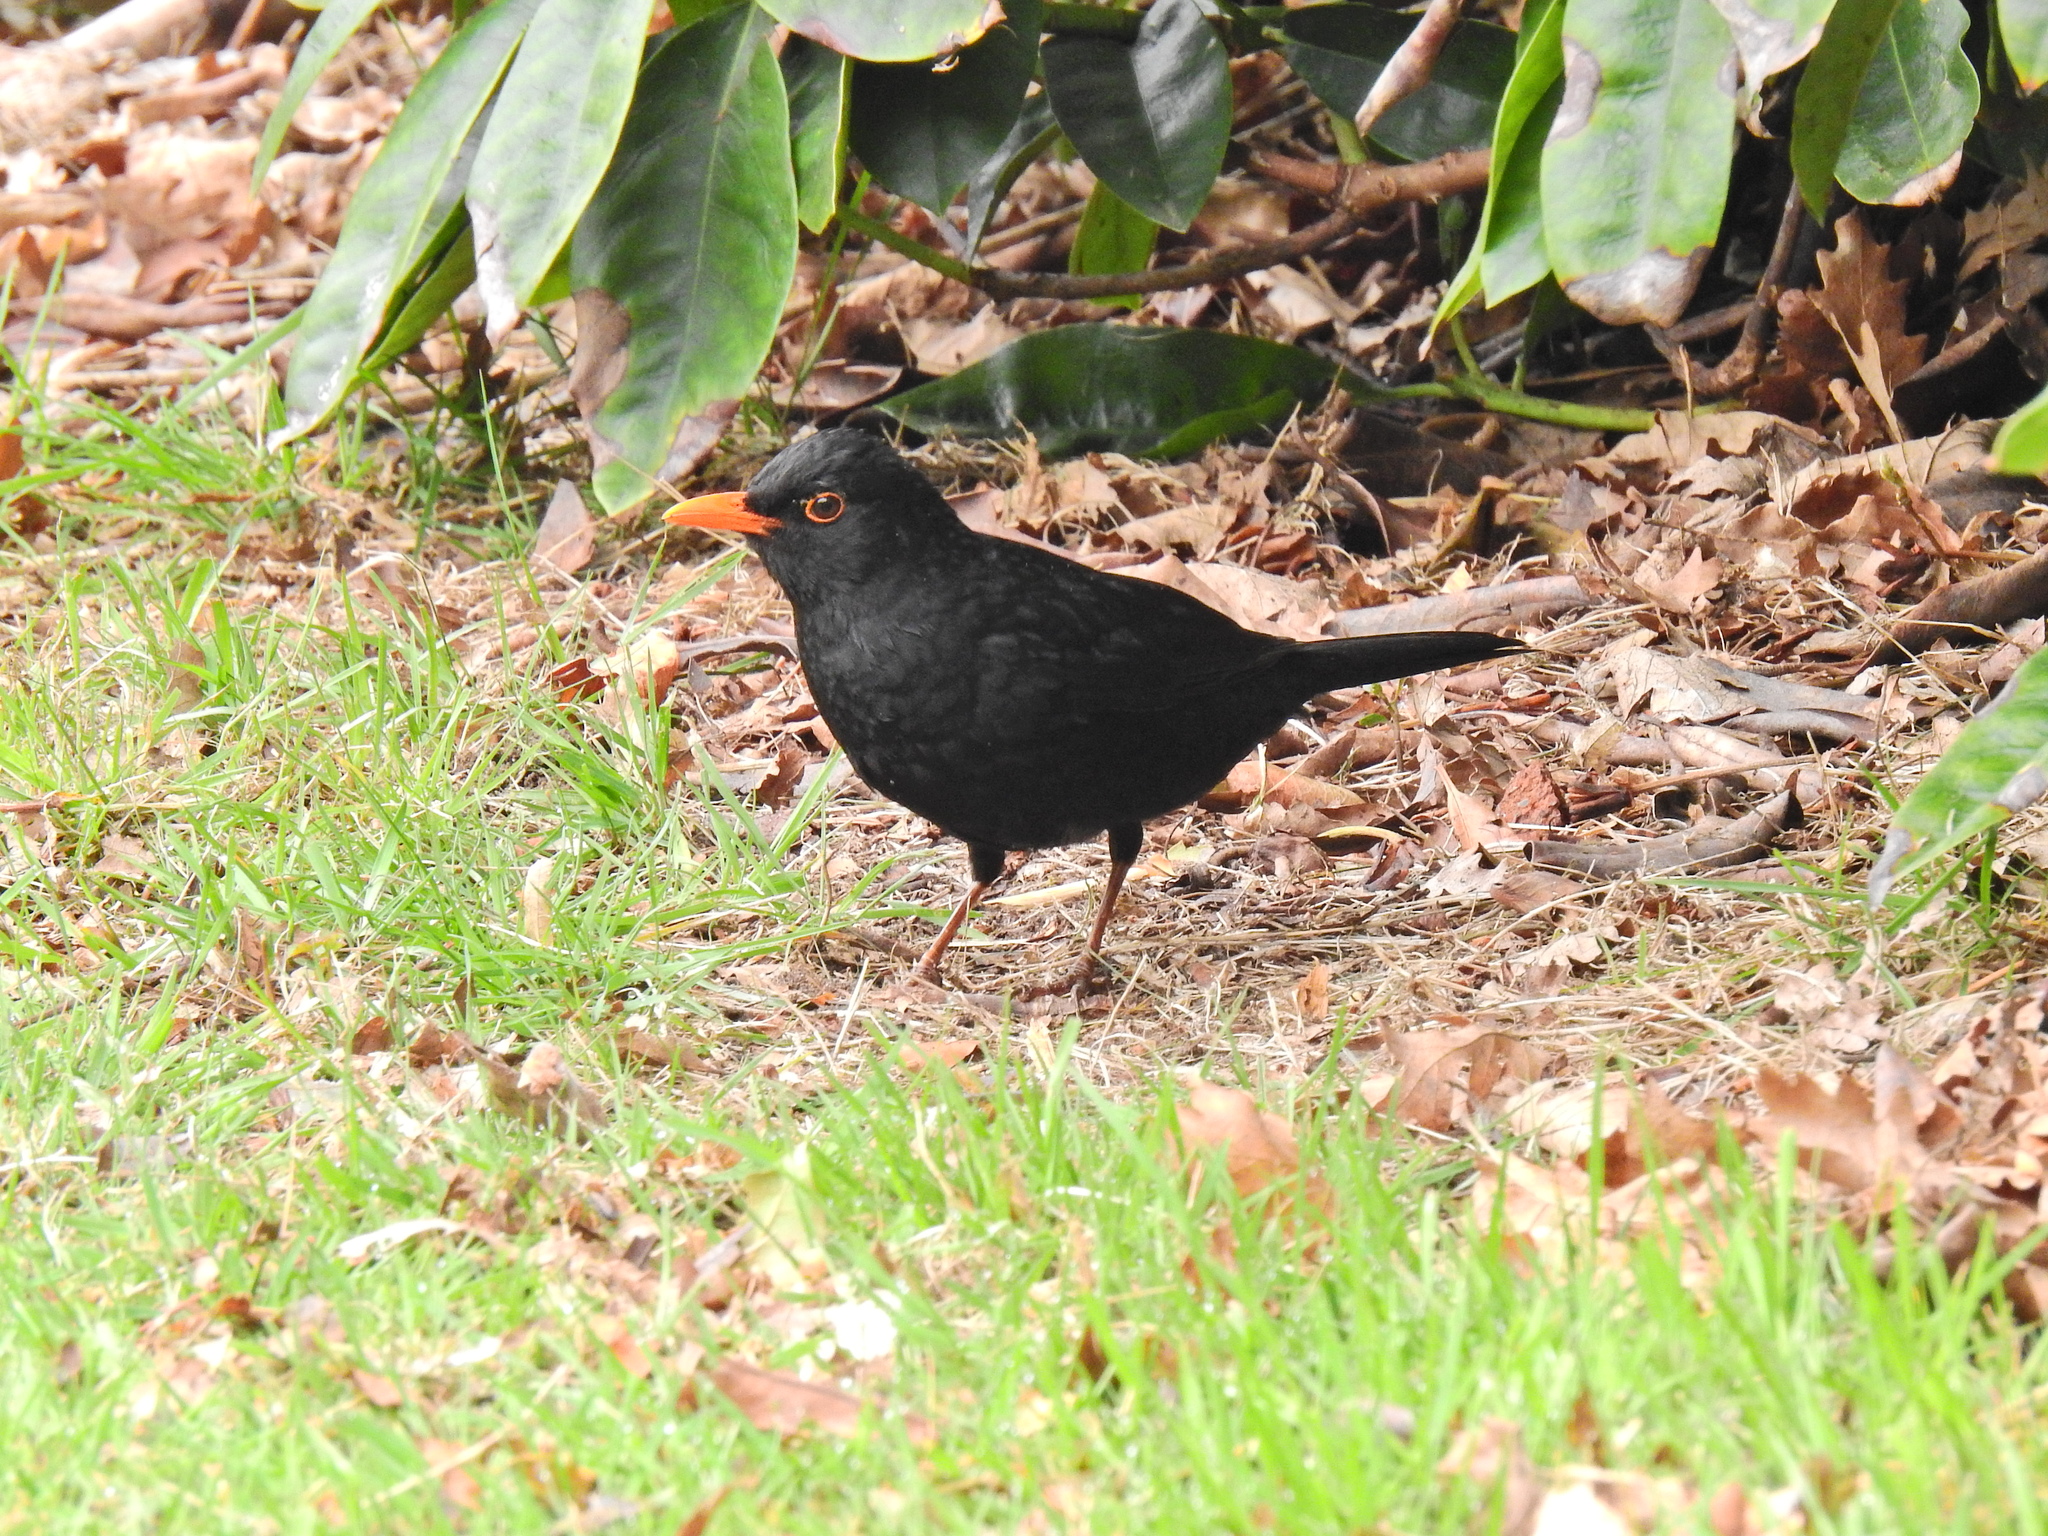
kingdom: Animalia
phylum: Chordata
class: Aves
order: Passeriformes
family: Turdidae
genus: Turdus
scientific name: Turdus merula
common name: Common blackbird
